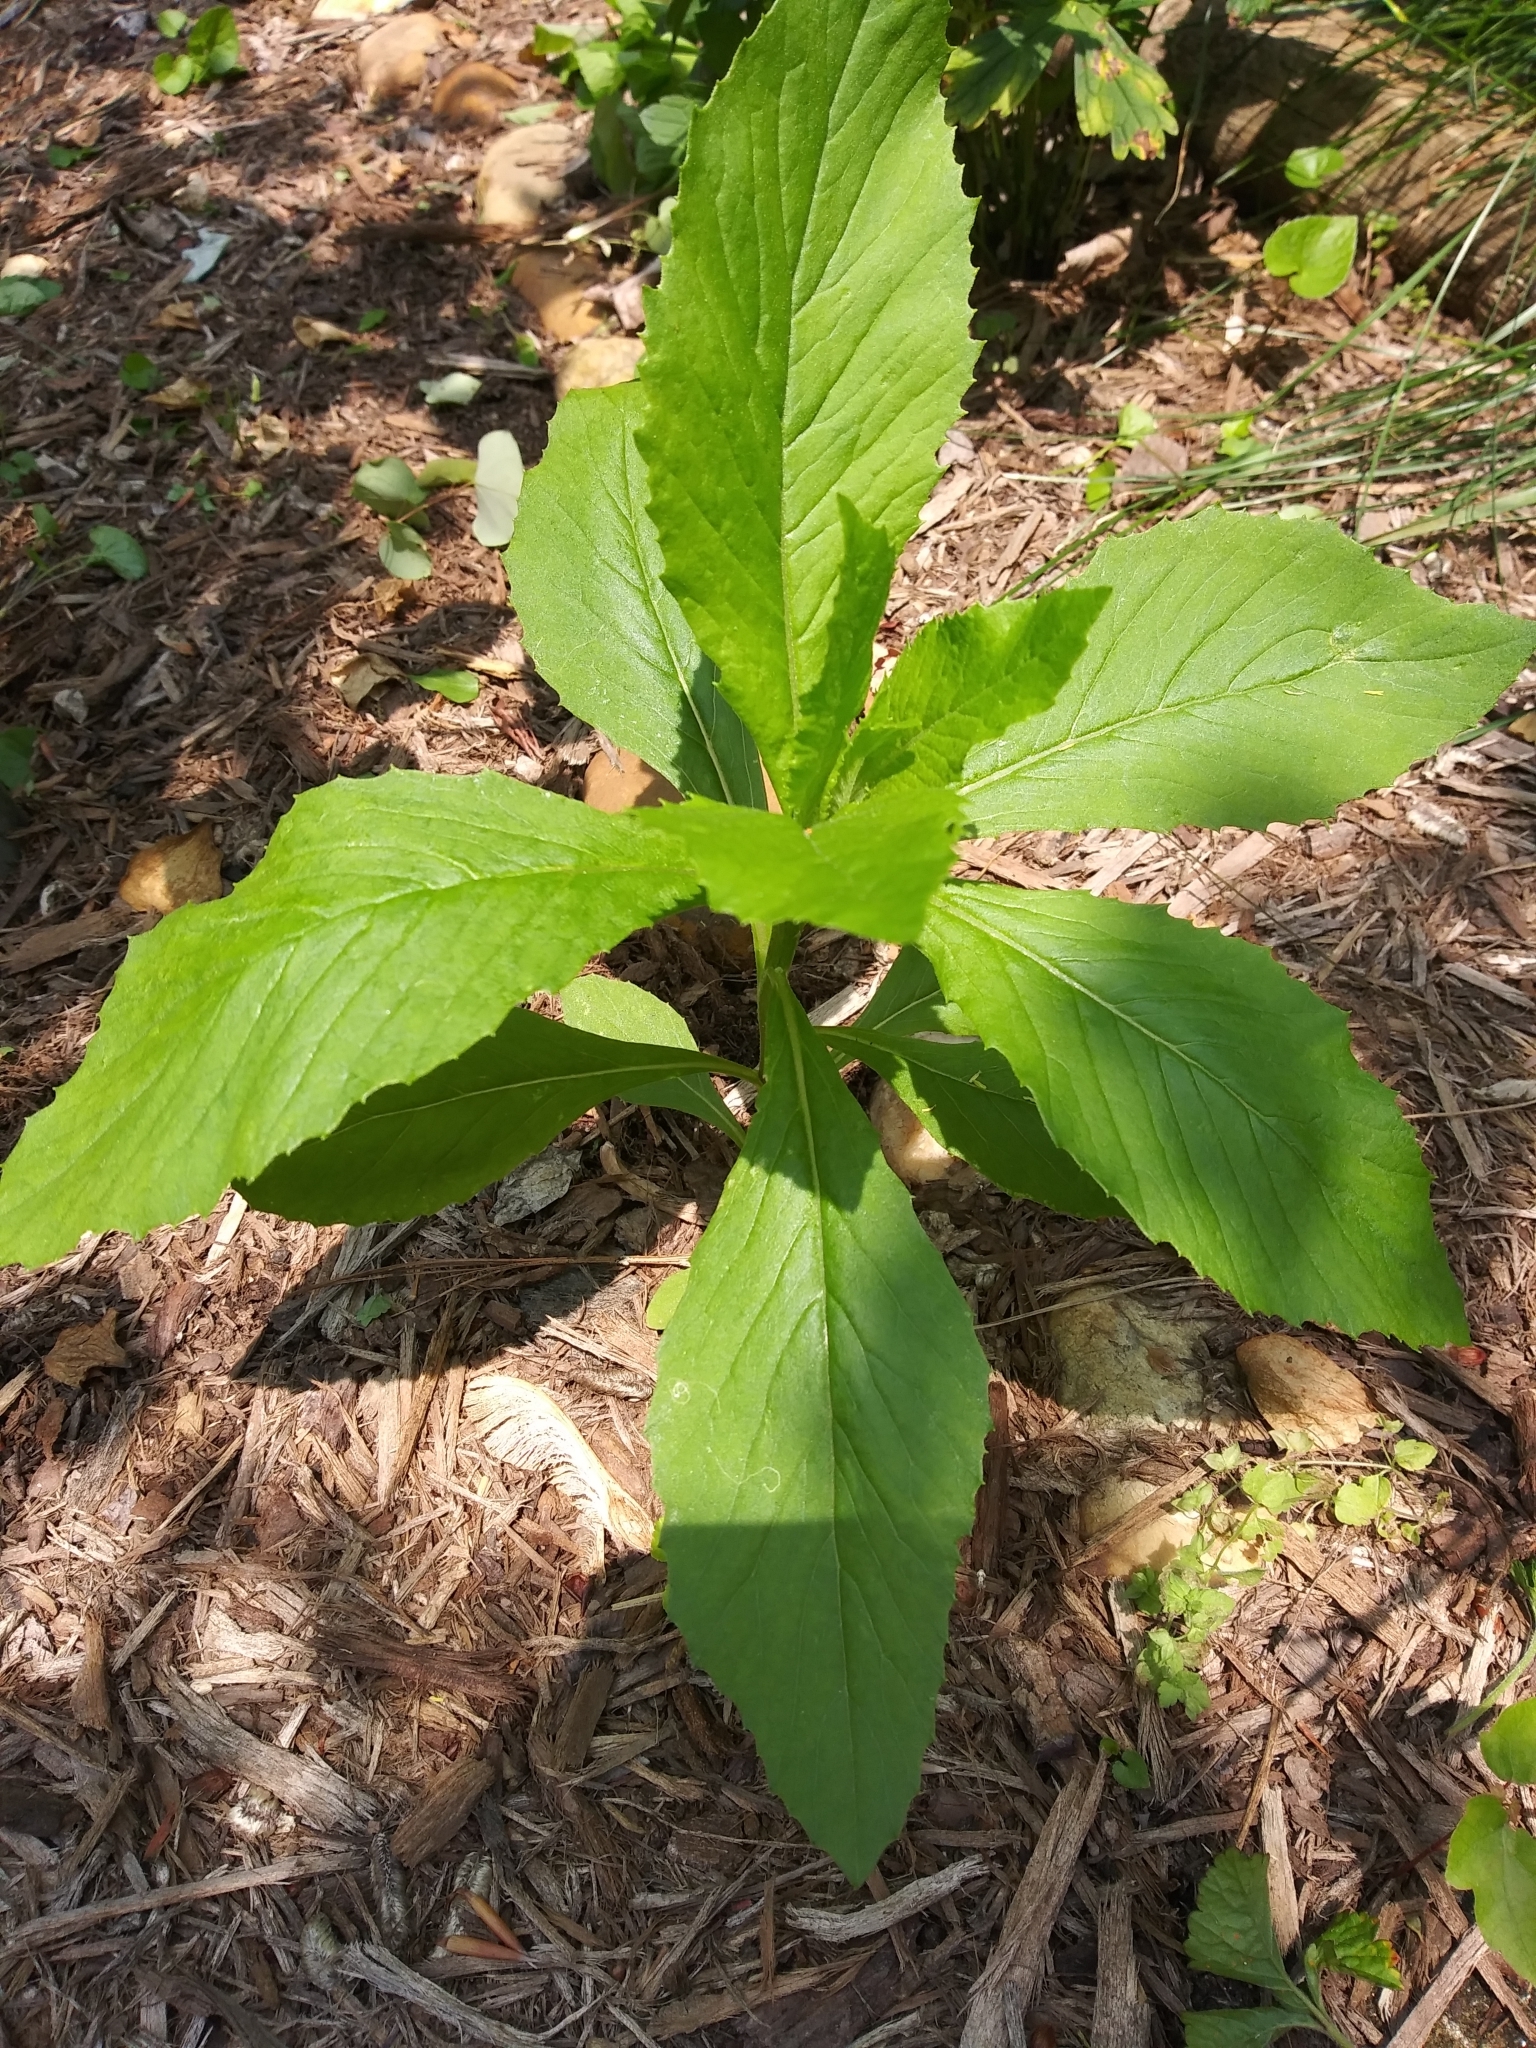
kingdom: Plantae
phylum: Tracheophyta
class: Magnoliopsida
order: Asterales
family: Asteraceae
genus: Erechtites
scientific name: Erechtites hieraciifolius
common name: American burnweed
